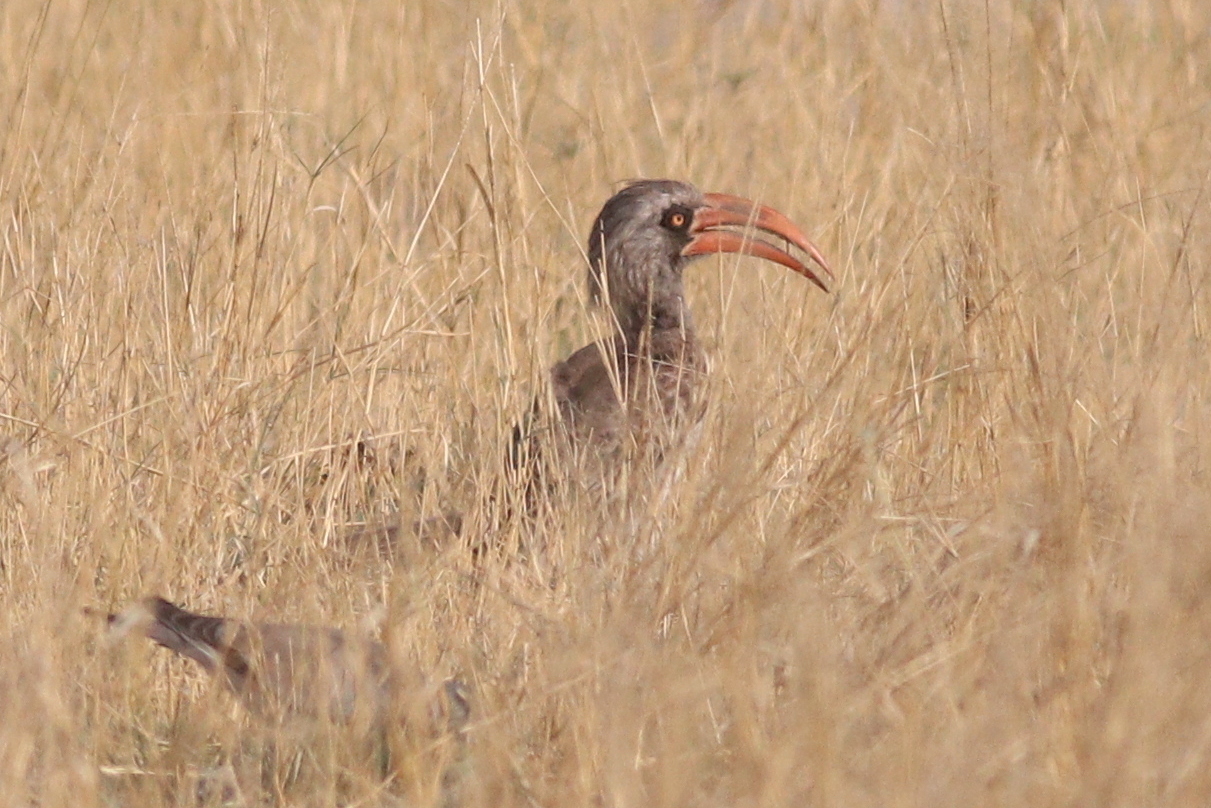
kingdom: Animalia
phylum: Chordata
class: Aves
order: Bucerotiformes
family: Bucerotidae
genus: Lophoceros
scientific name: Lophoceros bradfieldi
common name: Bradfield's hornbill
